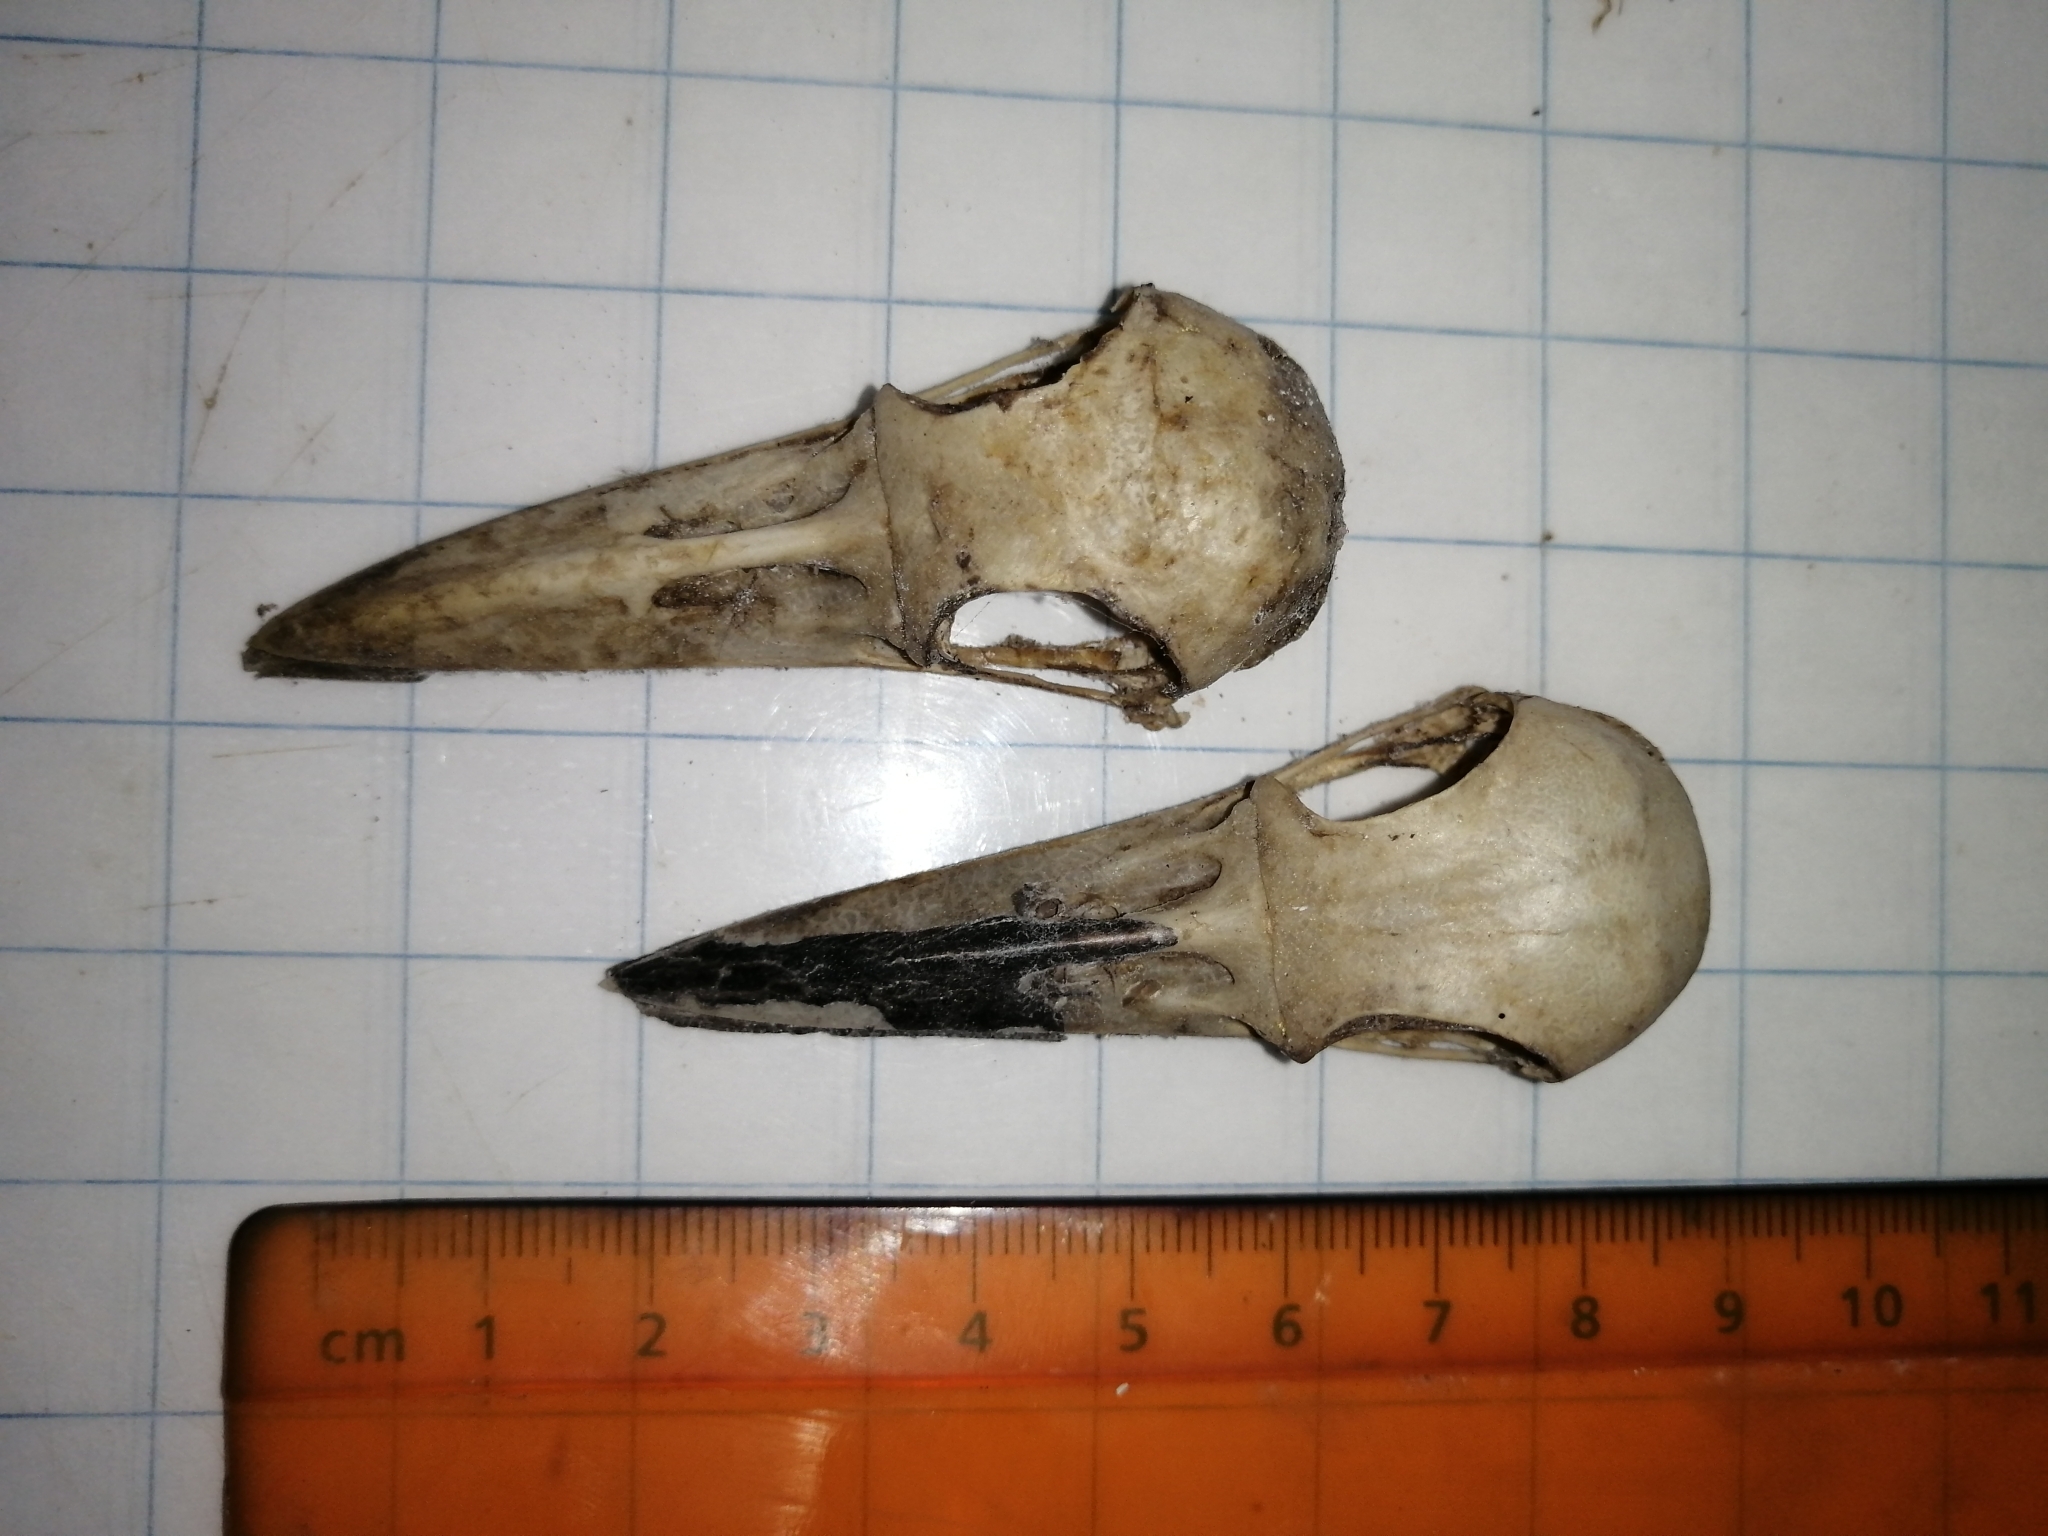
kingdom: Animalia
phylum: Chordata
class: Aves
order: Coraciiformes
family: Momotidae
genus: Eumomota
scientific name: Eumomota superciliosa
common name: Turquoise-browed motmot
